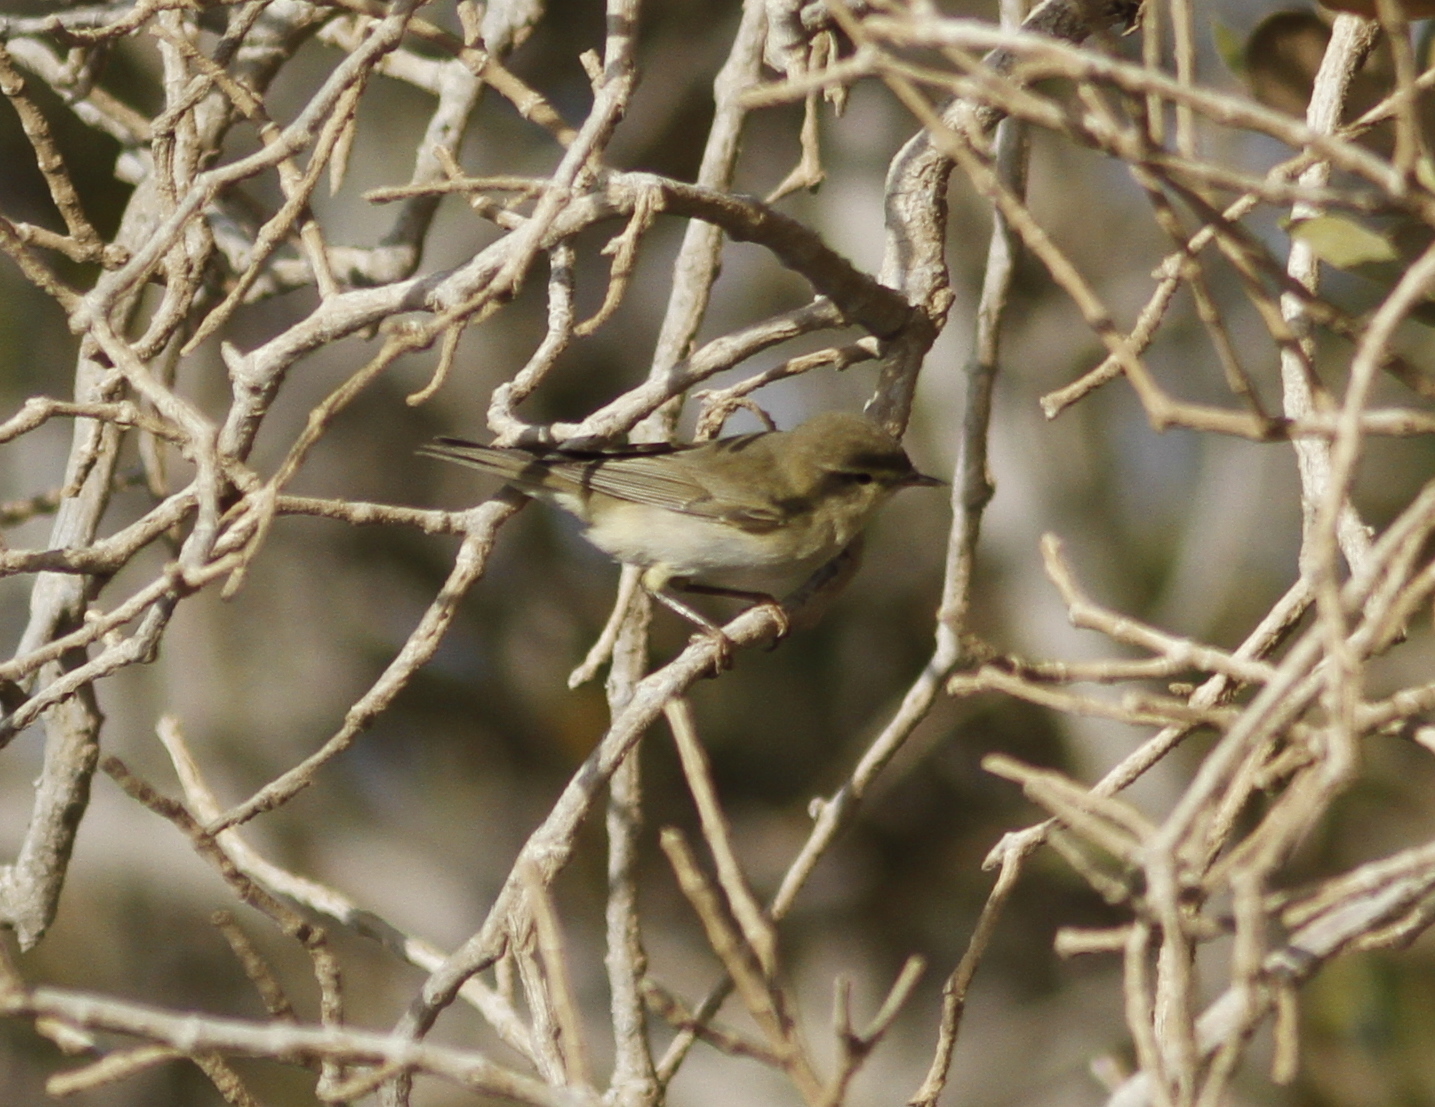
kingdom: Animalia
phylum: Chordata
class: Aves
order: Passeriformes
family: Phylloscopidae
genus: Phylloscopus
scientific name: Phylloscopus trochilus
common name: Willow warbler
